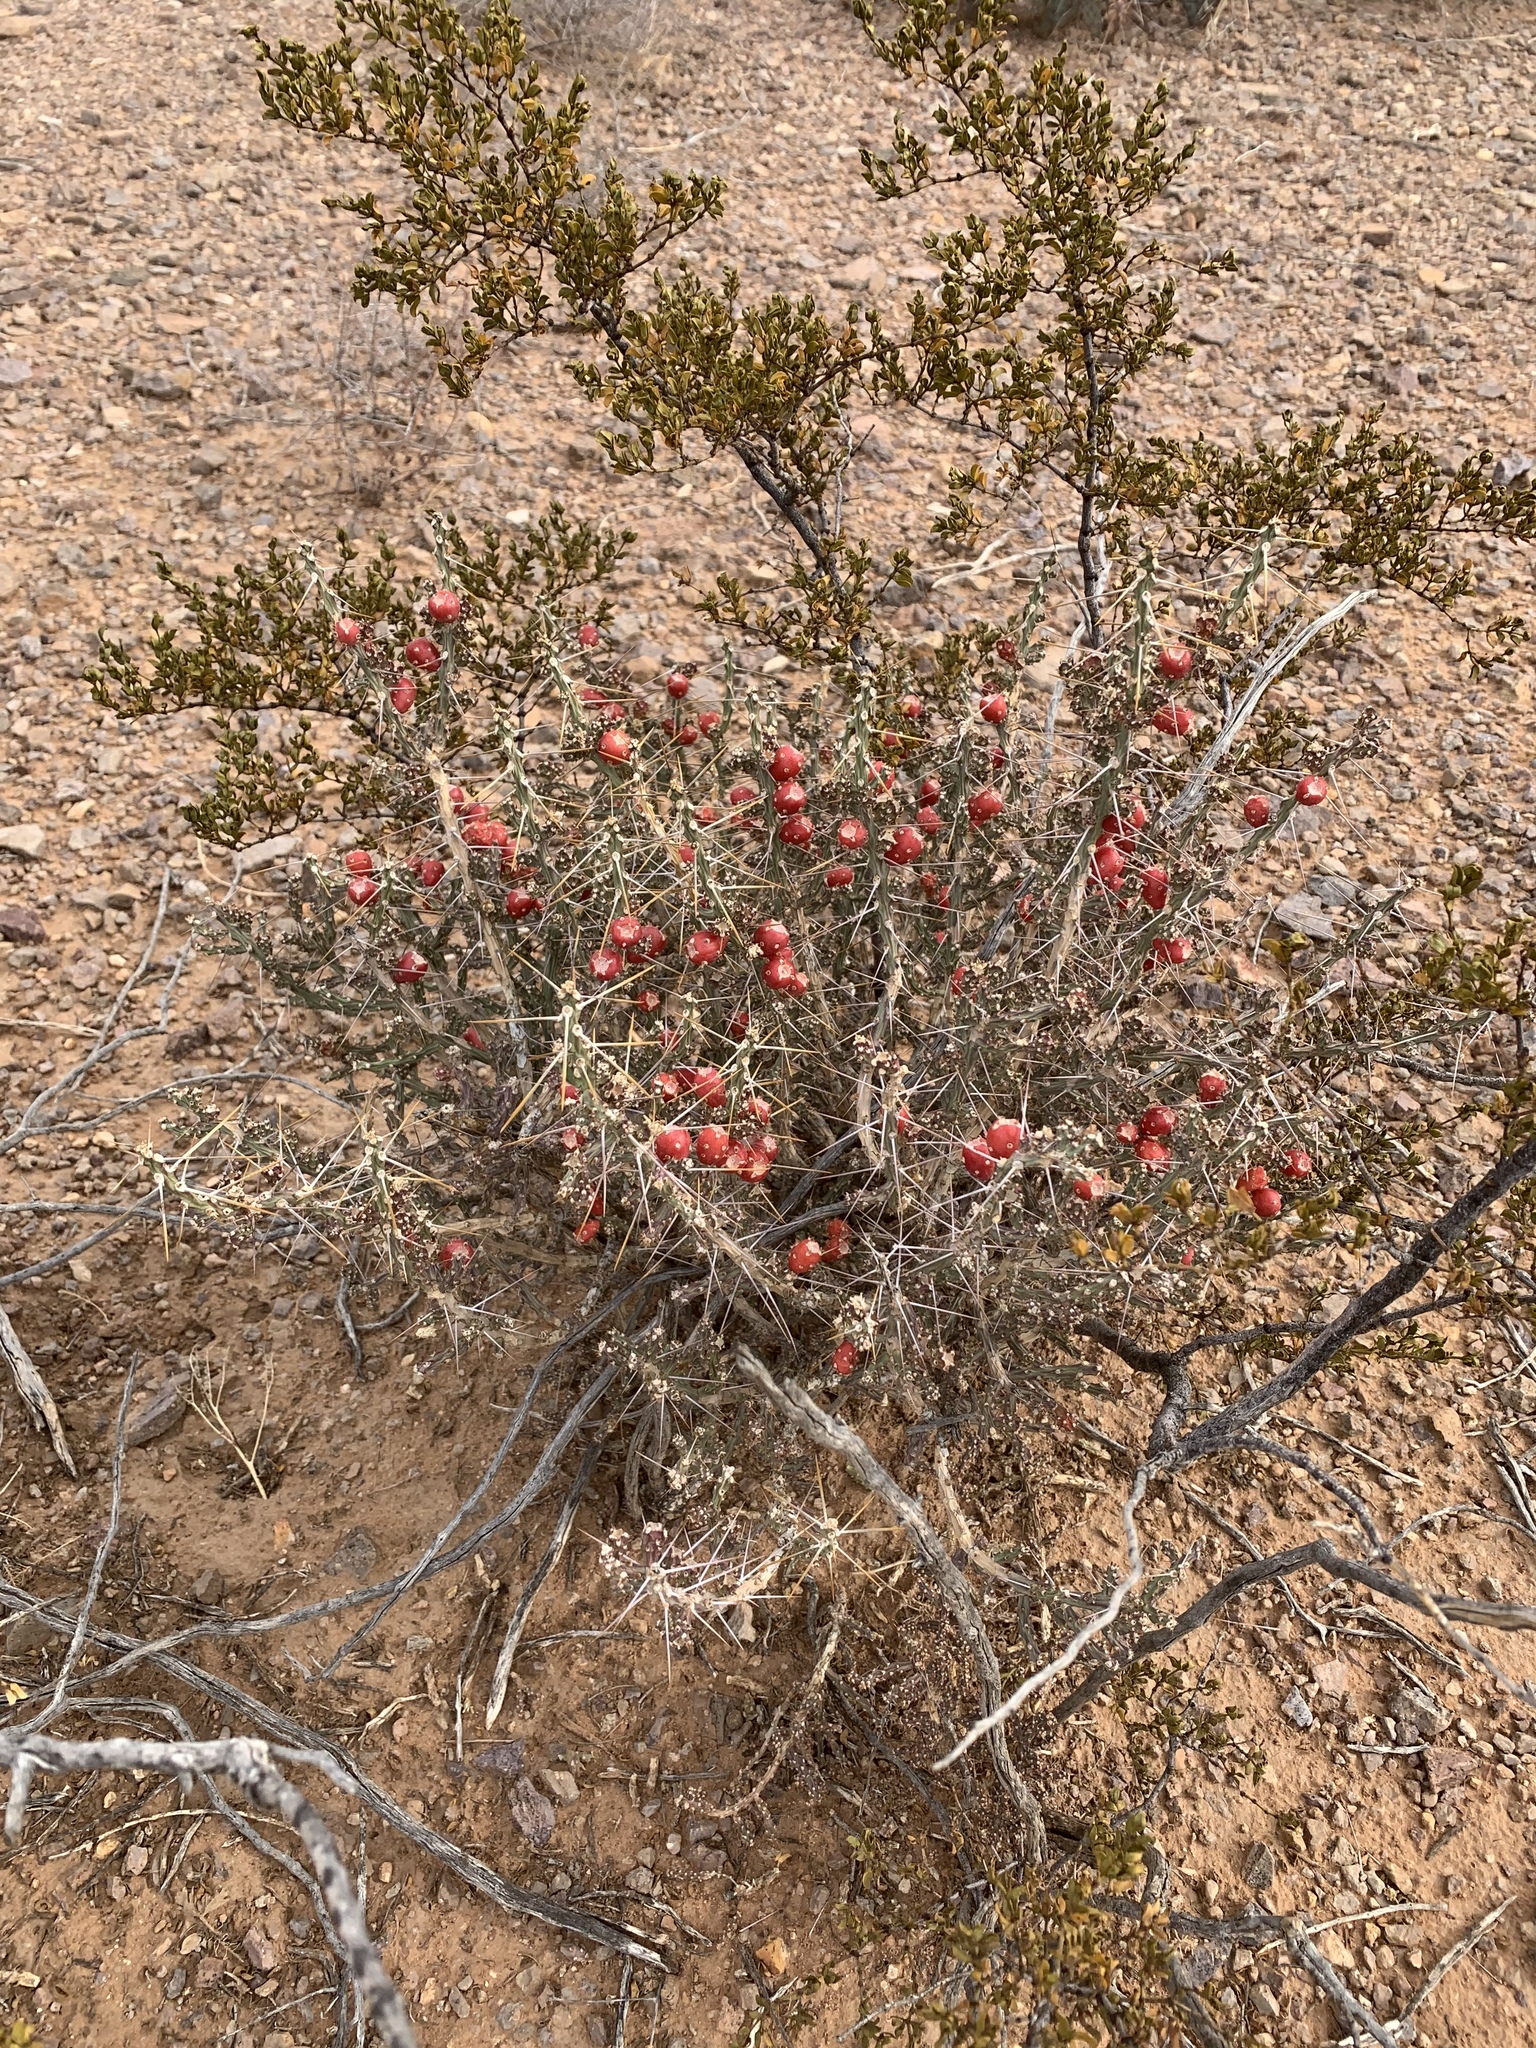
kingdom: Plantae
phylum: Tracheophyta
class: Magnoliopsida
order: Caryophyllales
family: Cactaceae
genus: Cylindropuntia
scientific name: Cylindropuntia leptocaulis
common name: Christmas cactus
